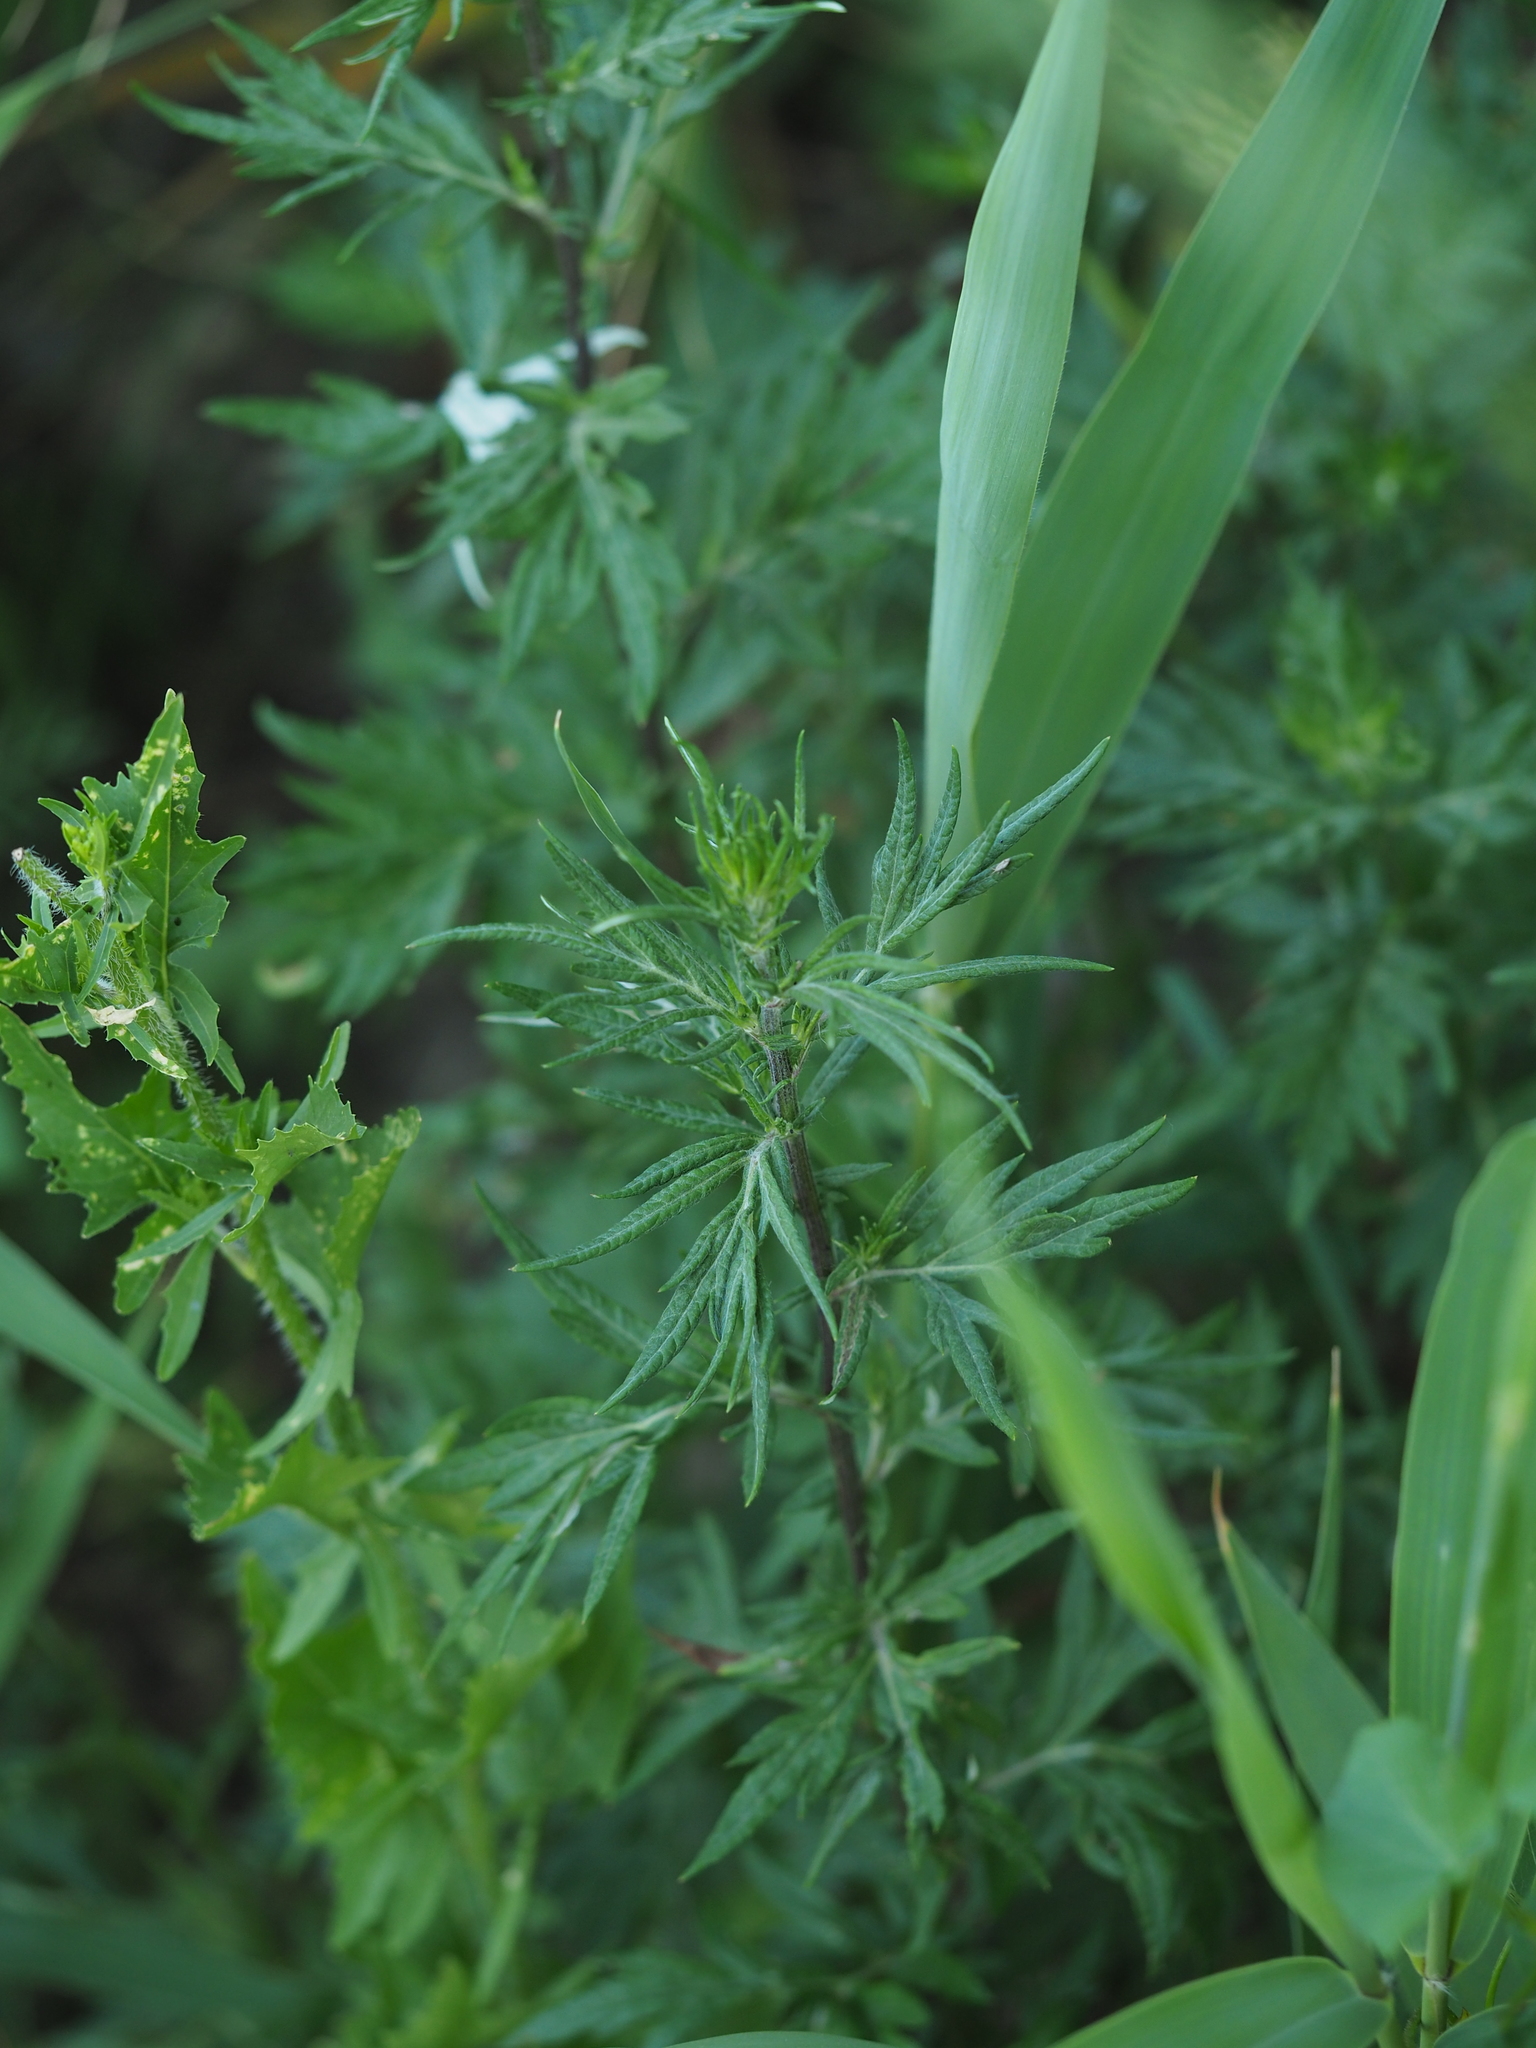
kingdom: Plantae
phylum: Tracheophyta
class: Magnoliopsida
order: Asterales
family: Asteraceae
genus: Artemisia
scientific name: Artemisia vulgaris
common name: Mugwort
